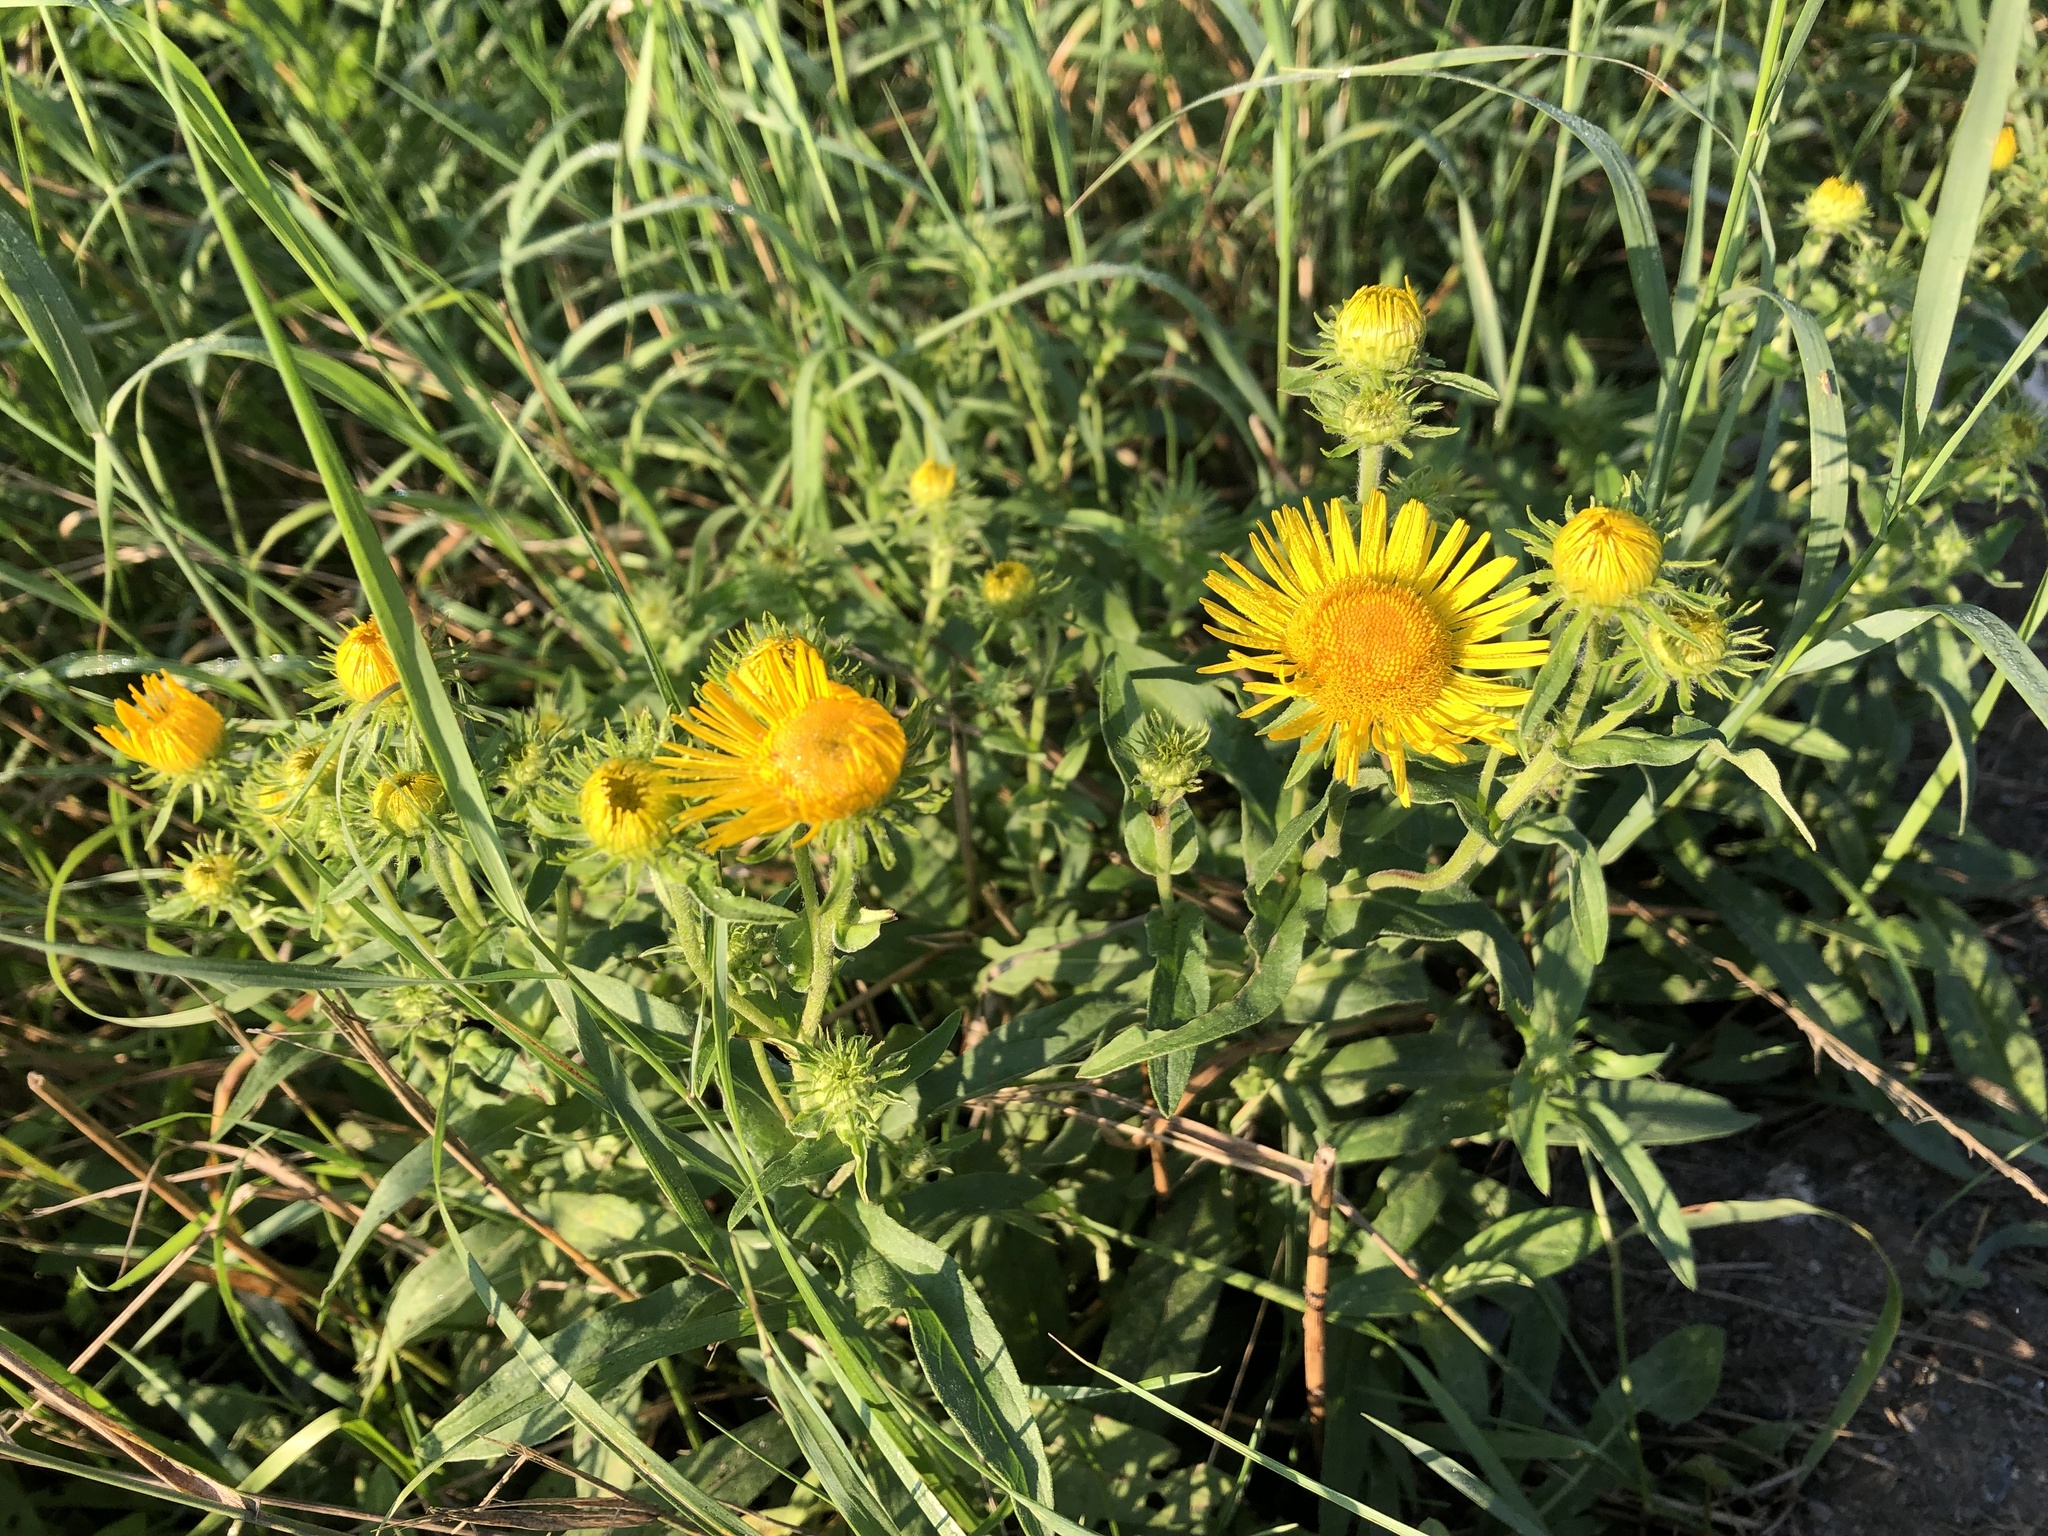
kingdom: Plantae
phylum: Tracheophyta
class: Magnoliopsida
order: Asterales
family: Asteraceae
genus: Pentanema
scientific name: Pentanema britannicum
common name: British elecampane
